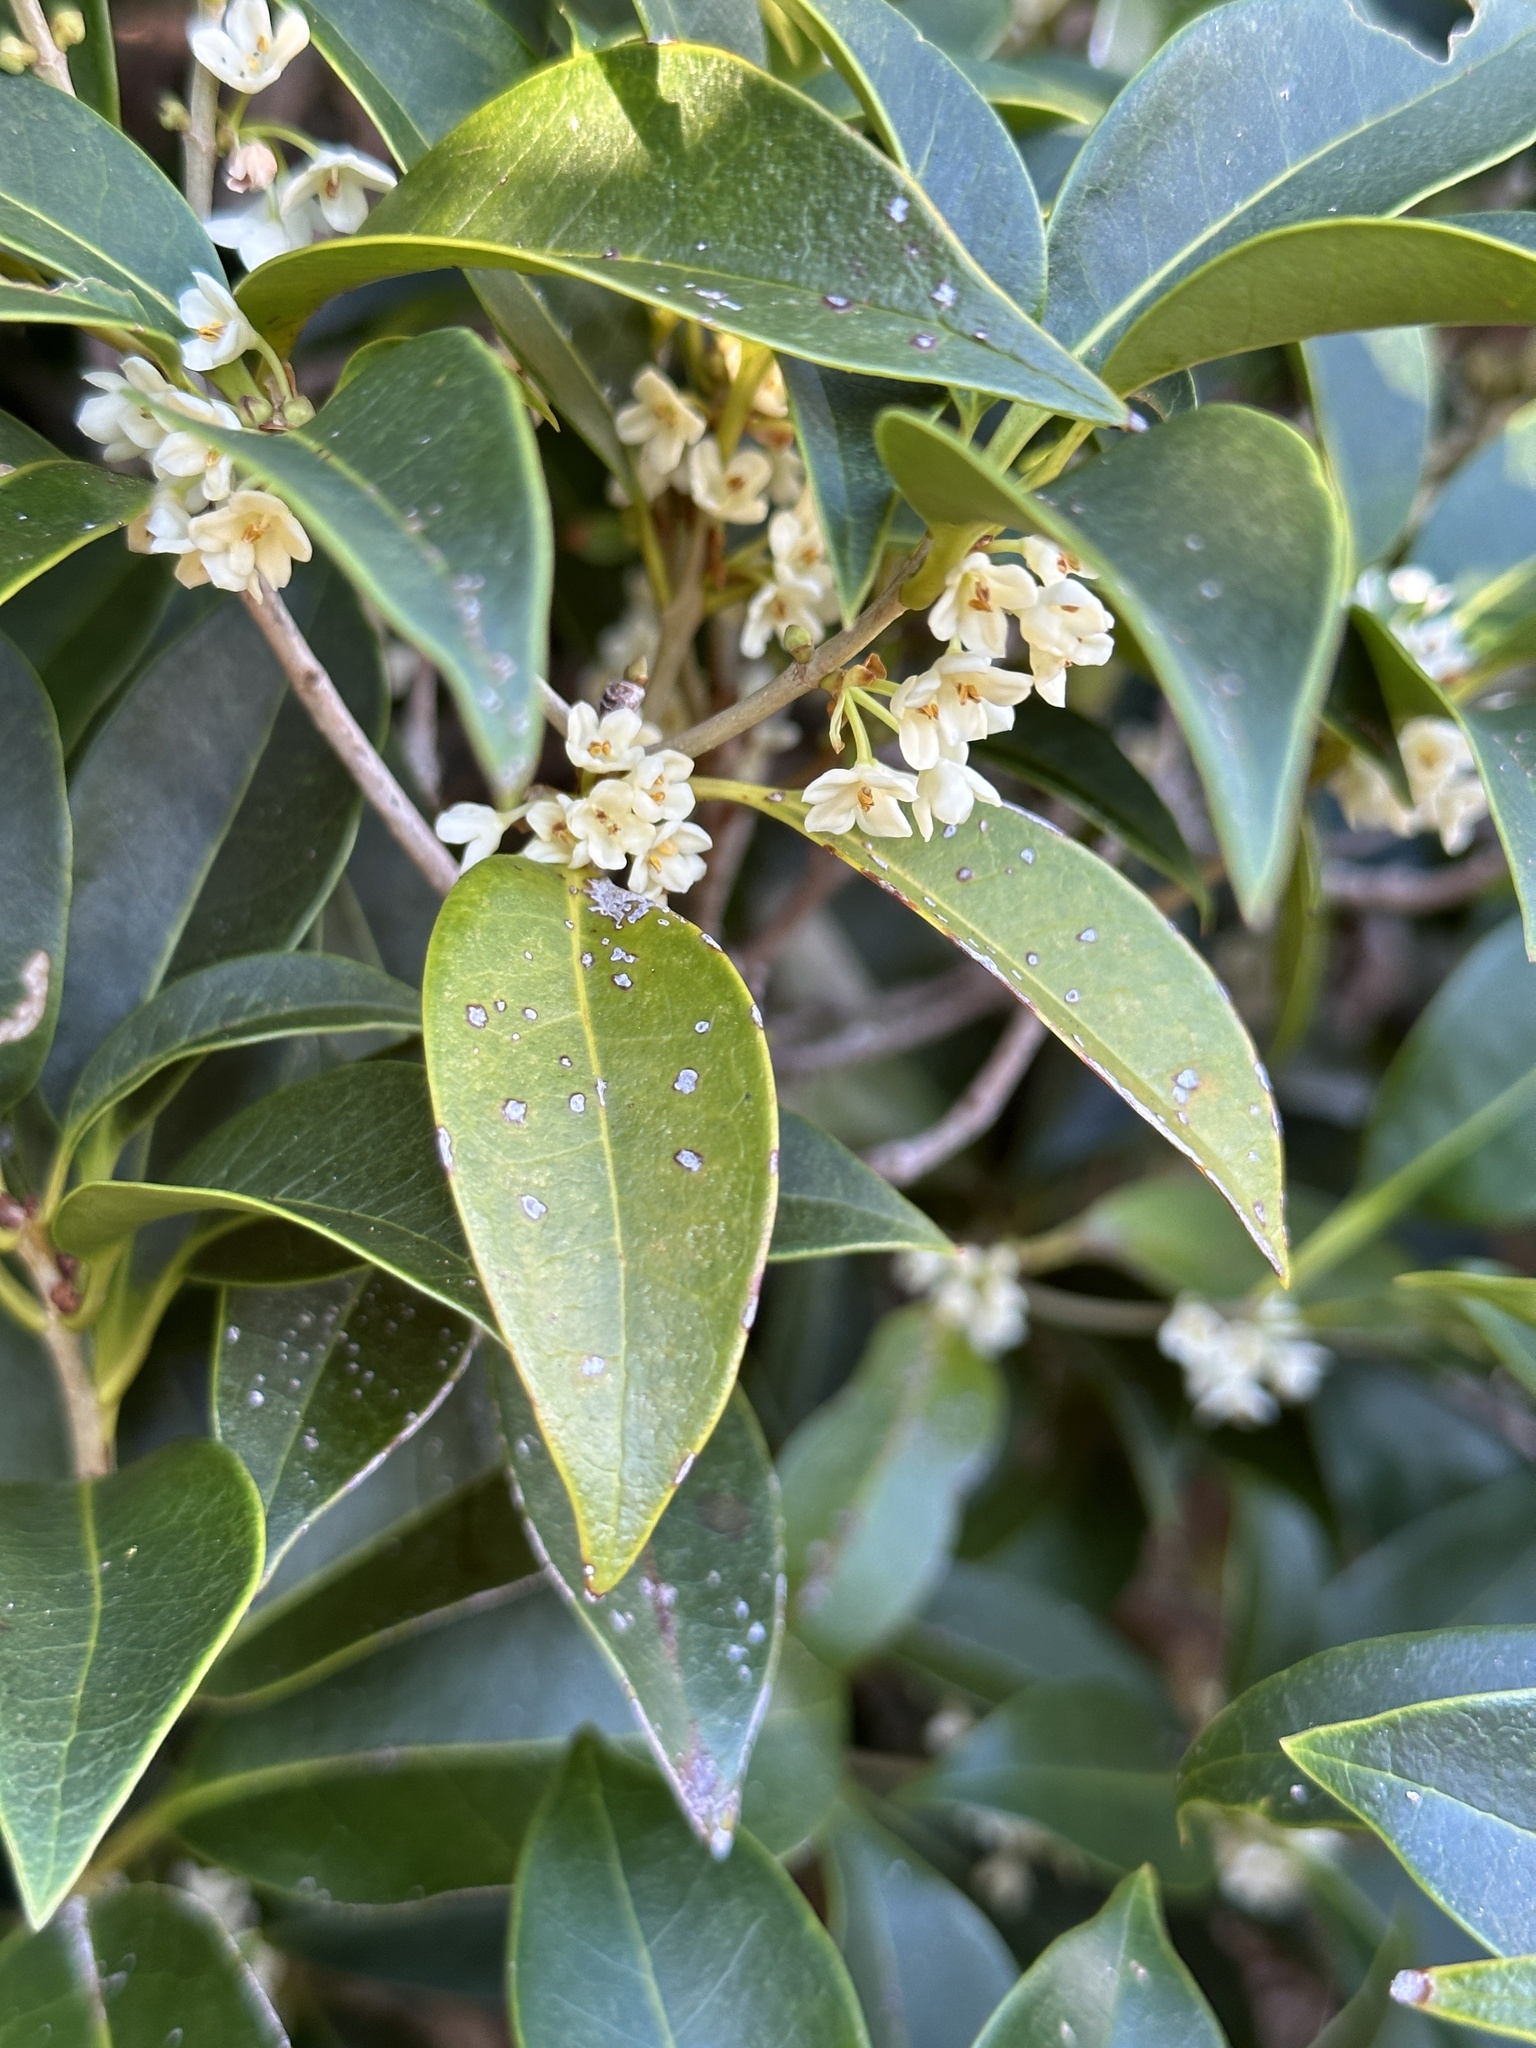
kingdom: Plantae
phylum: Tracheophyta
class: Magnoliopsida
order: Lamiales
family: Oleaceae
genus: Osmanthus
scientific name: Osmanthus insularis
